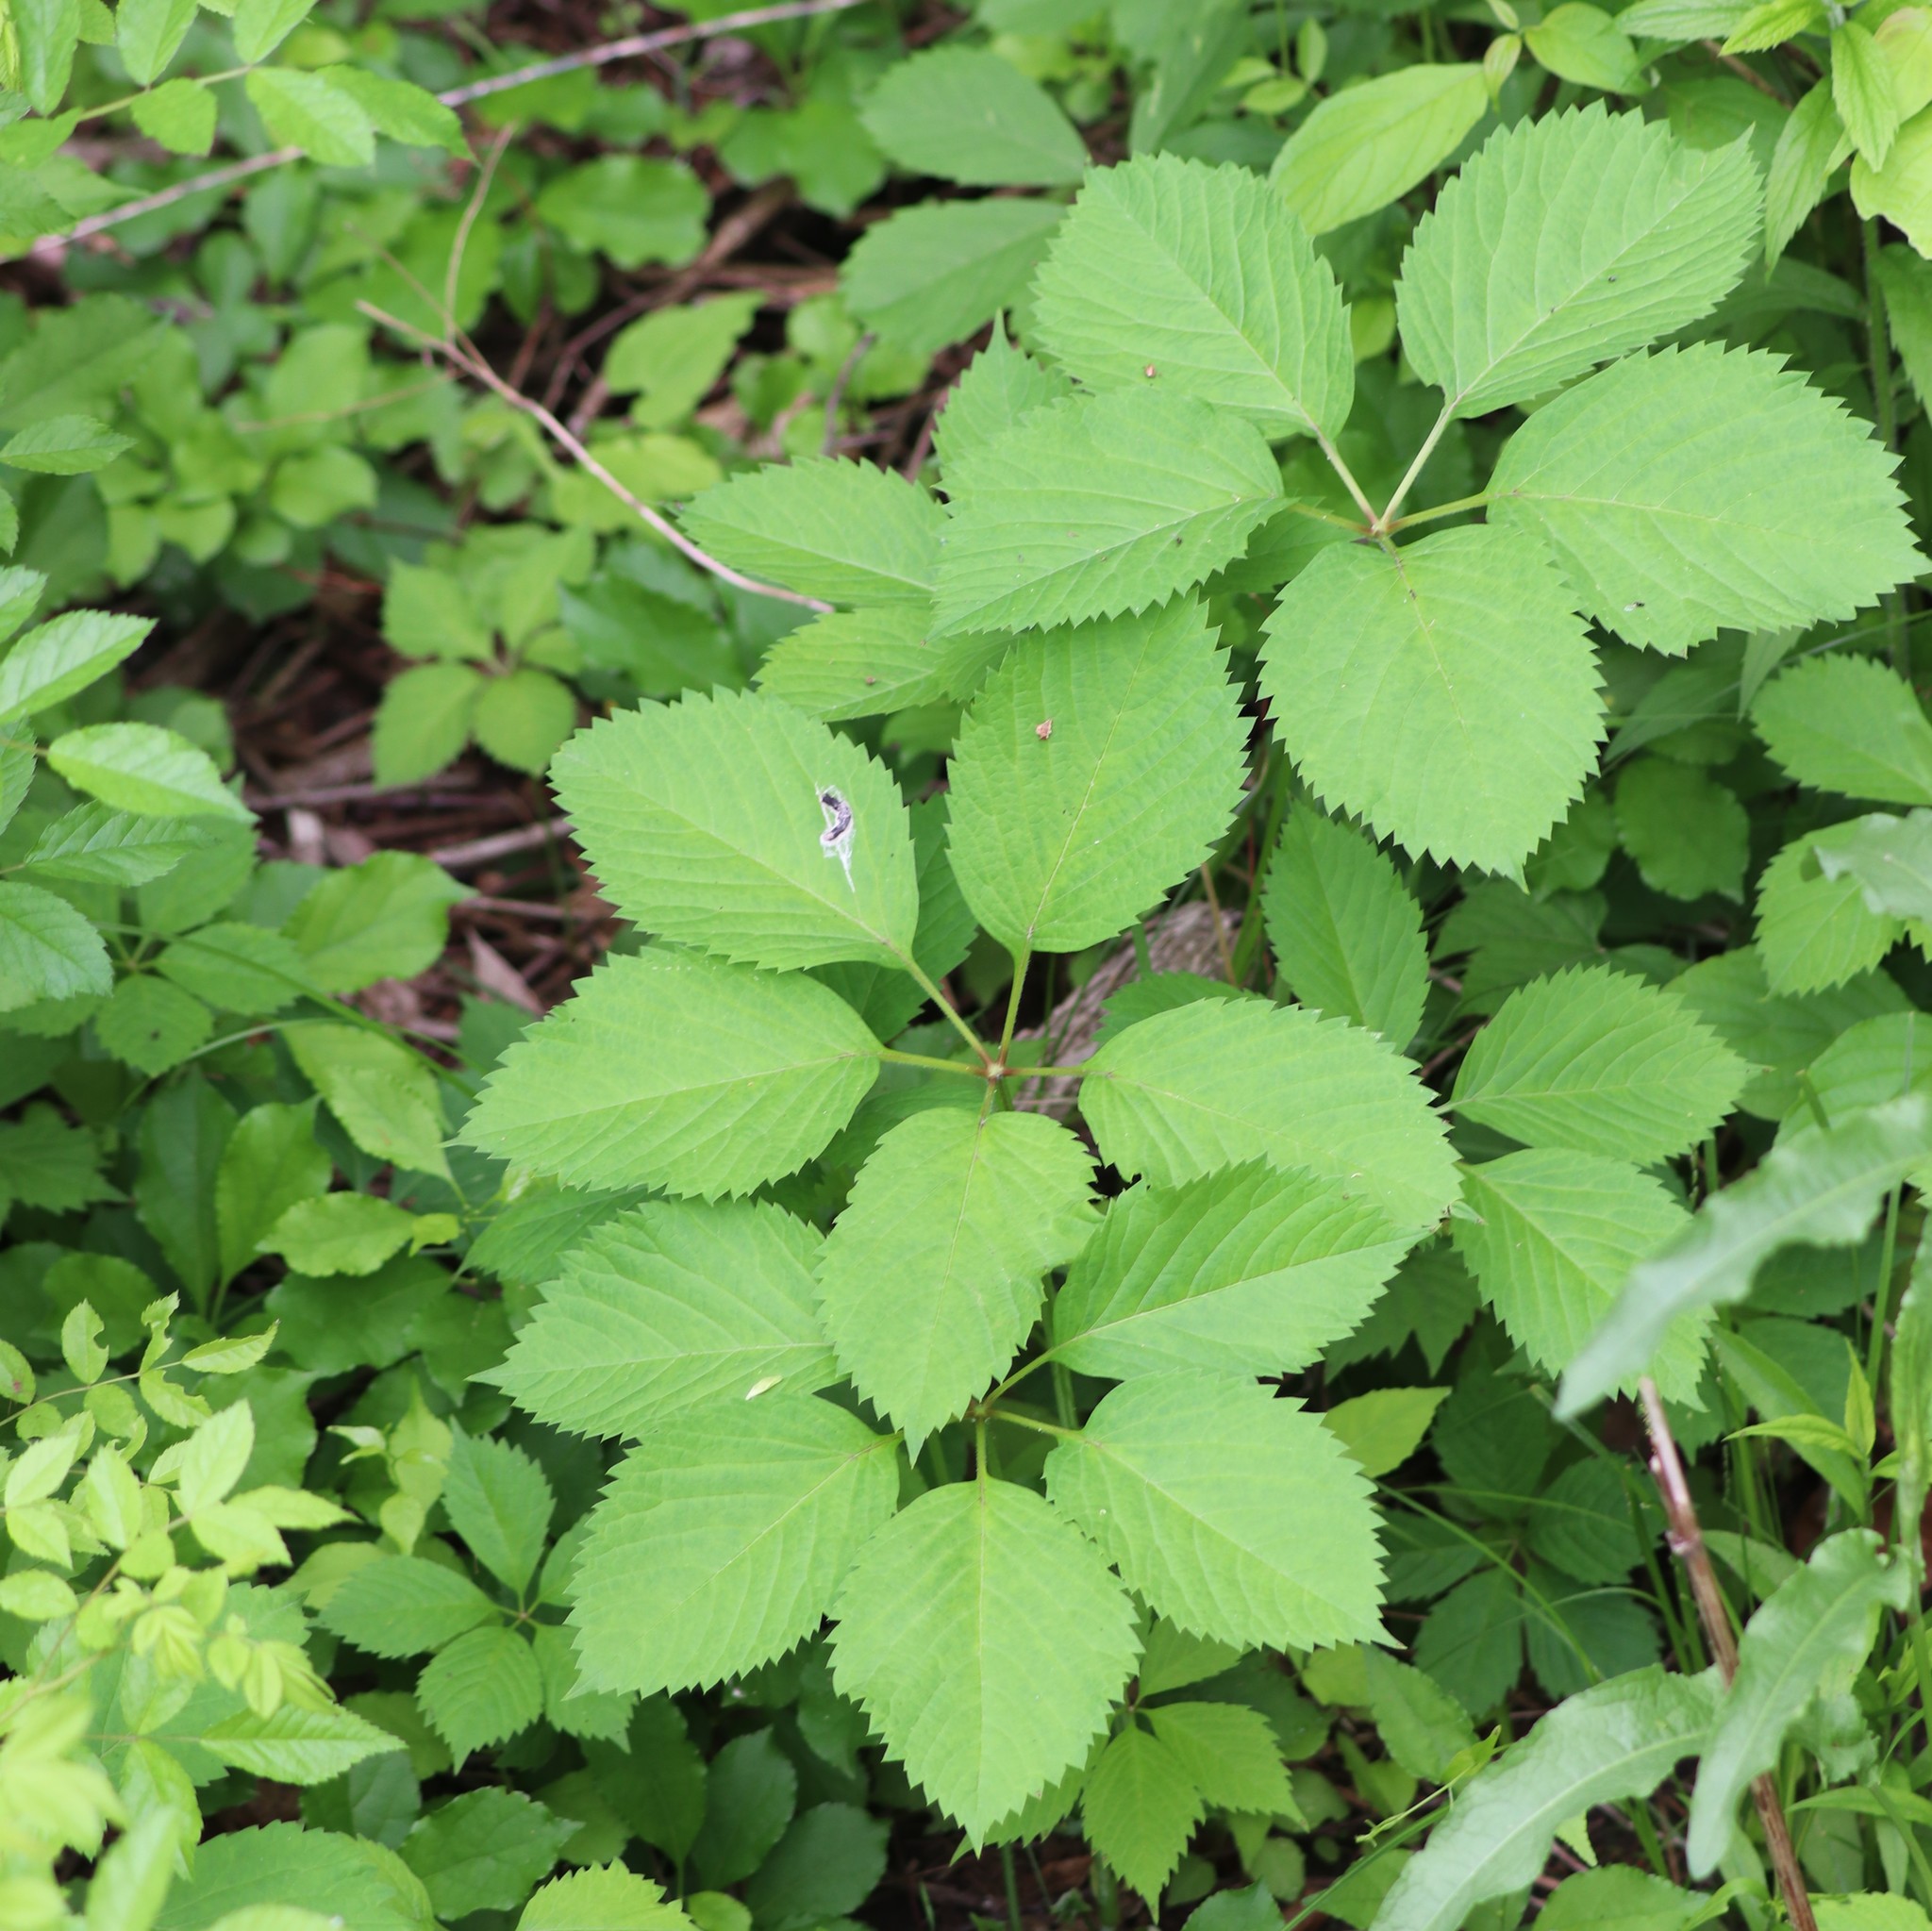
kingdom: Plantae
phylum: Tracheophyta
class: Magnoliopsida
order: Vitales
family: Vitaceae
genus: Parthenocissus
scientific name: Parthenocissus inserta
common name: False virginia-creeper
